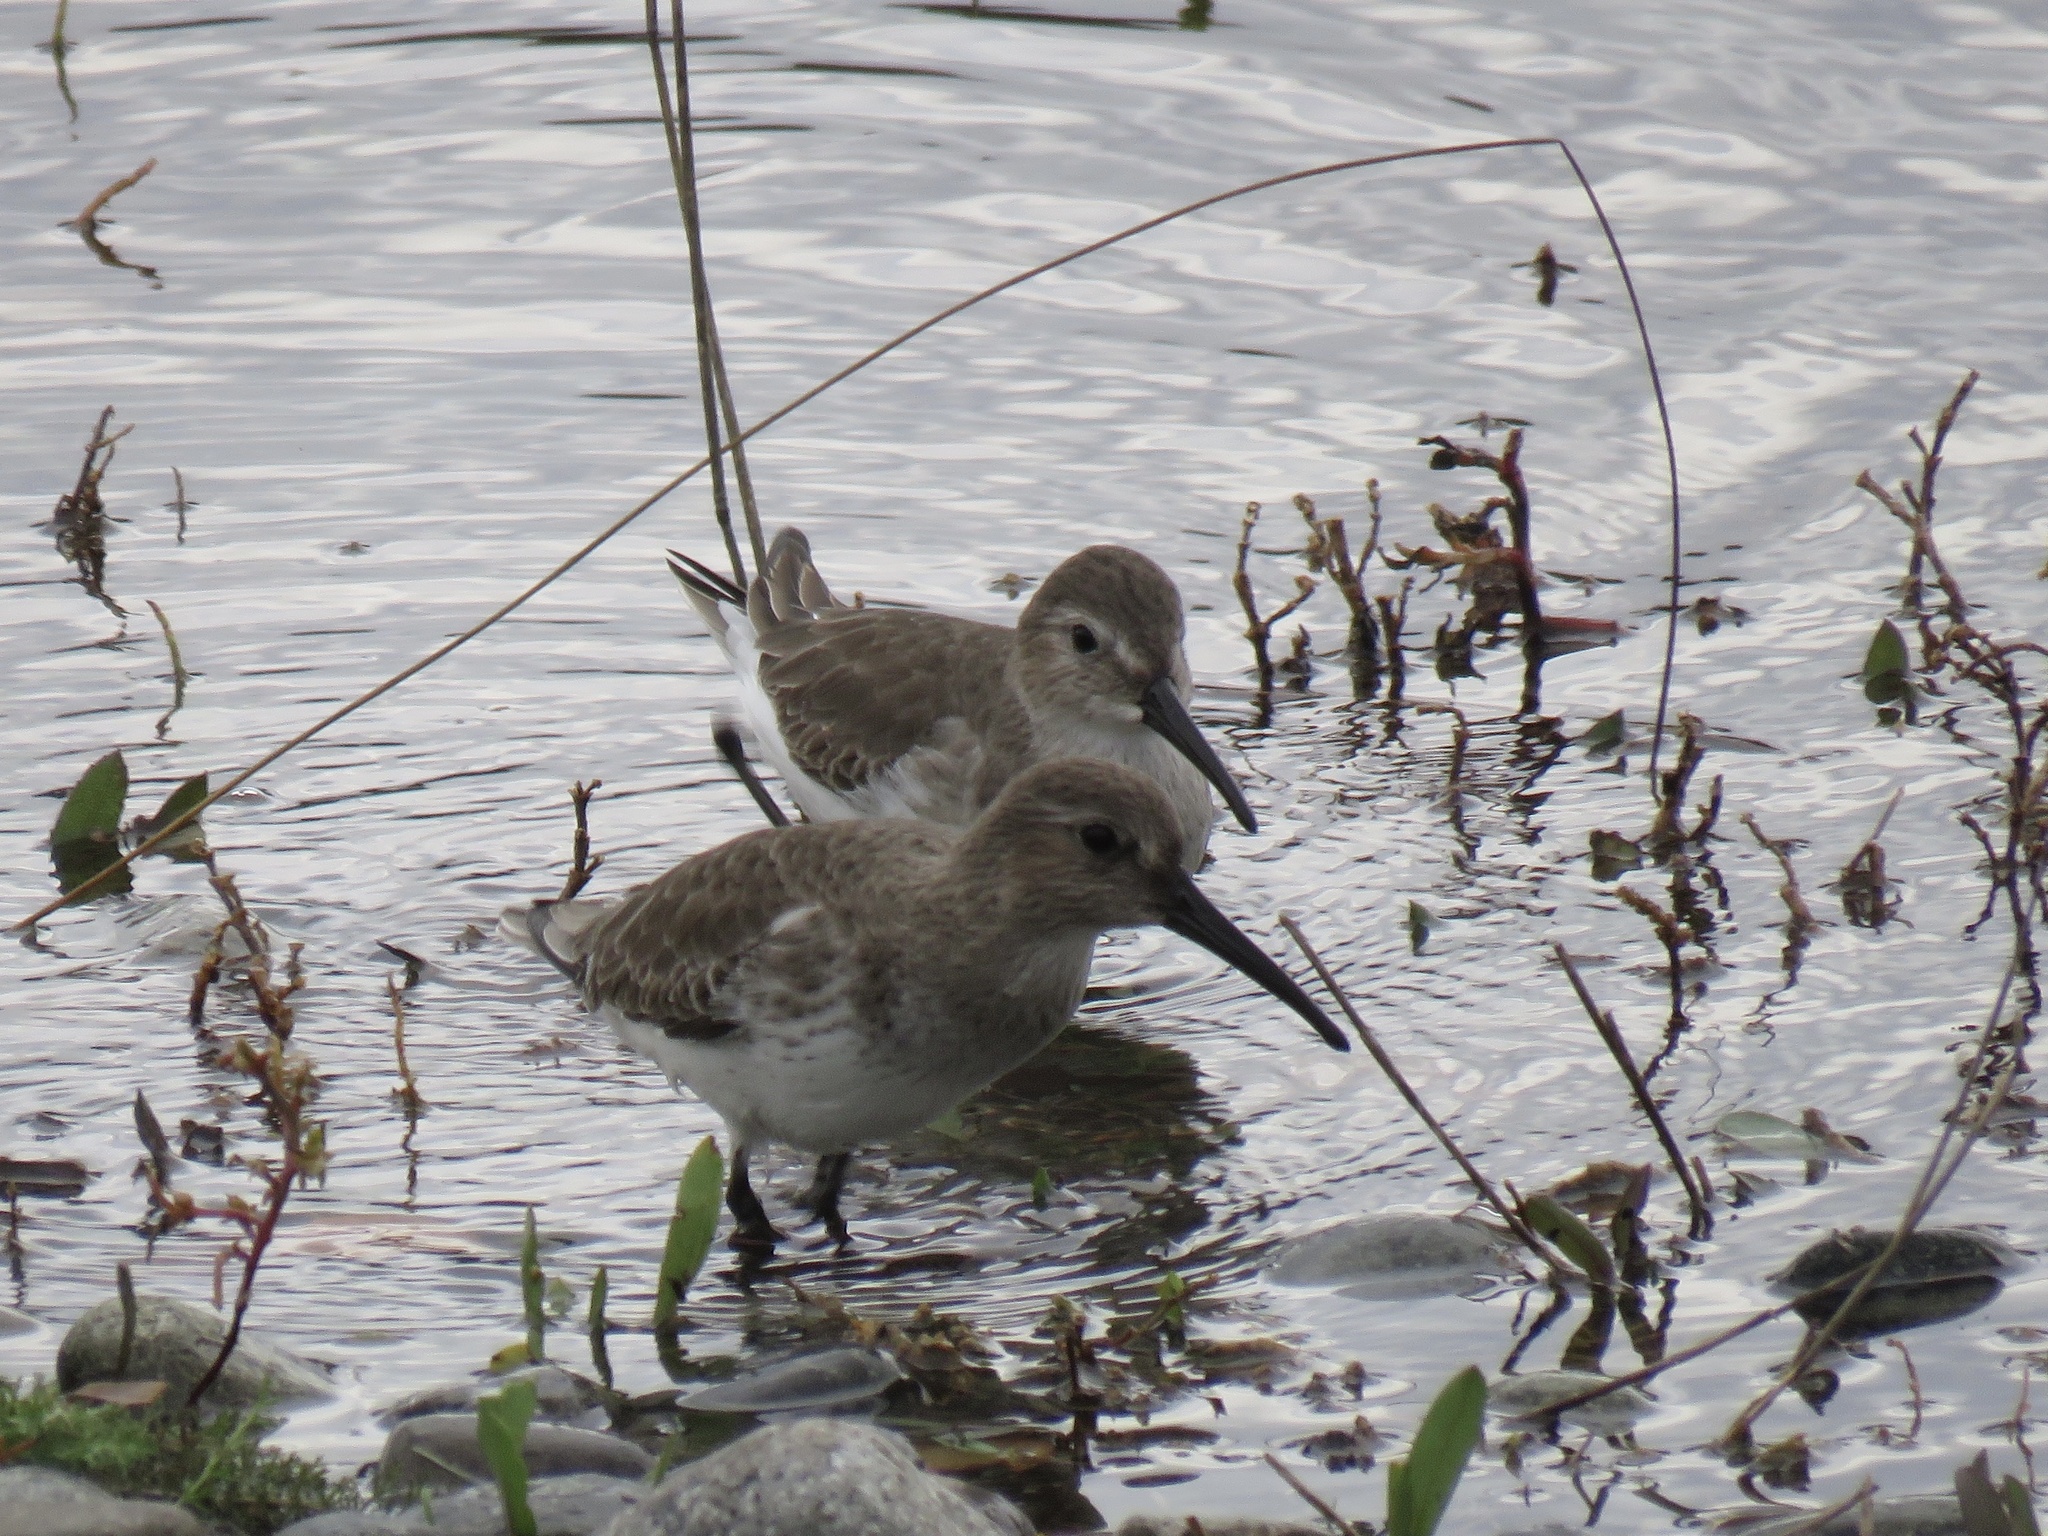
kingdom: Animalia
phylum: Chordata
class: Aves
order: Charadriiformes
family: Scolopacidae
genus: Calidris
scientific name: Calidris alpina
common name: Dunlin
